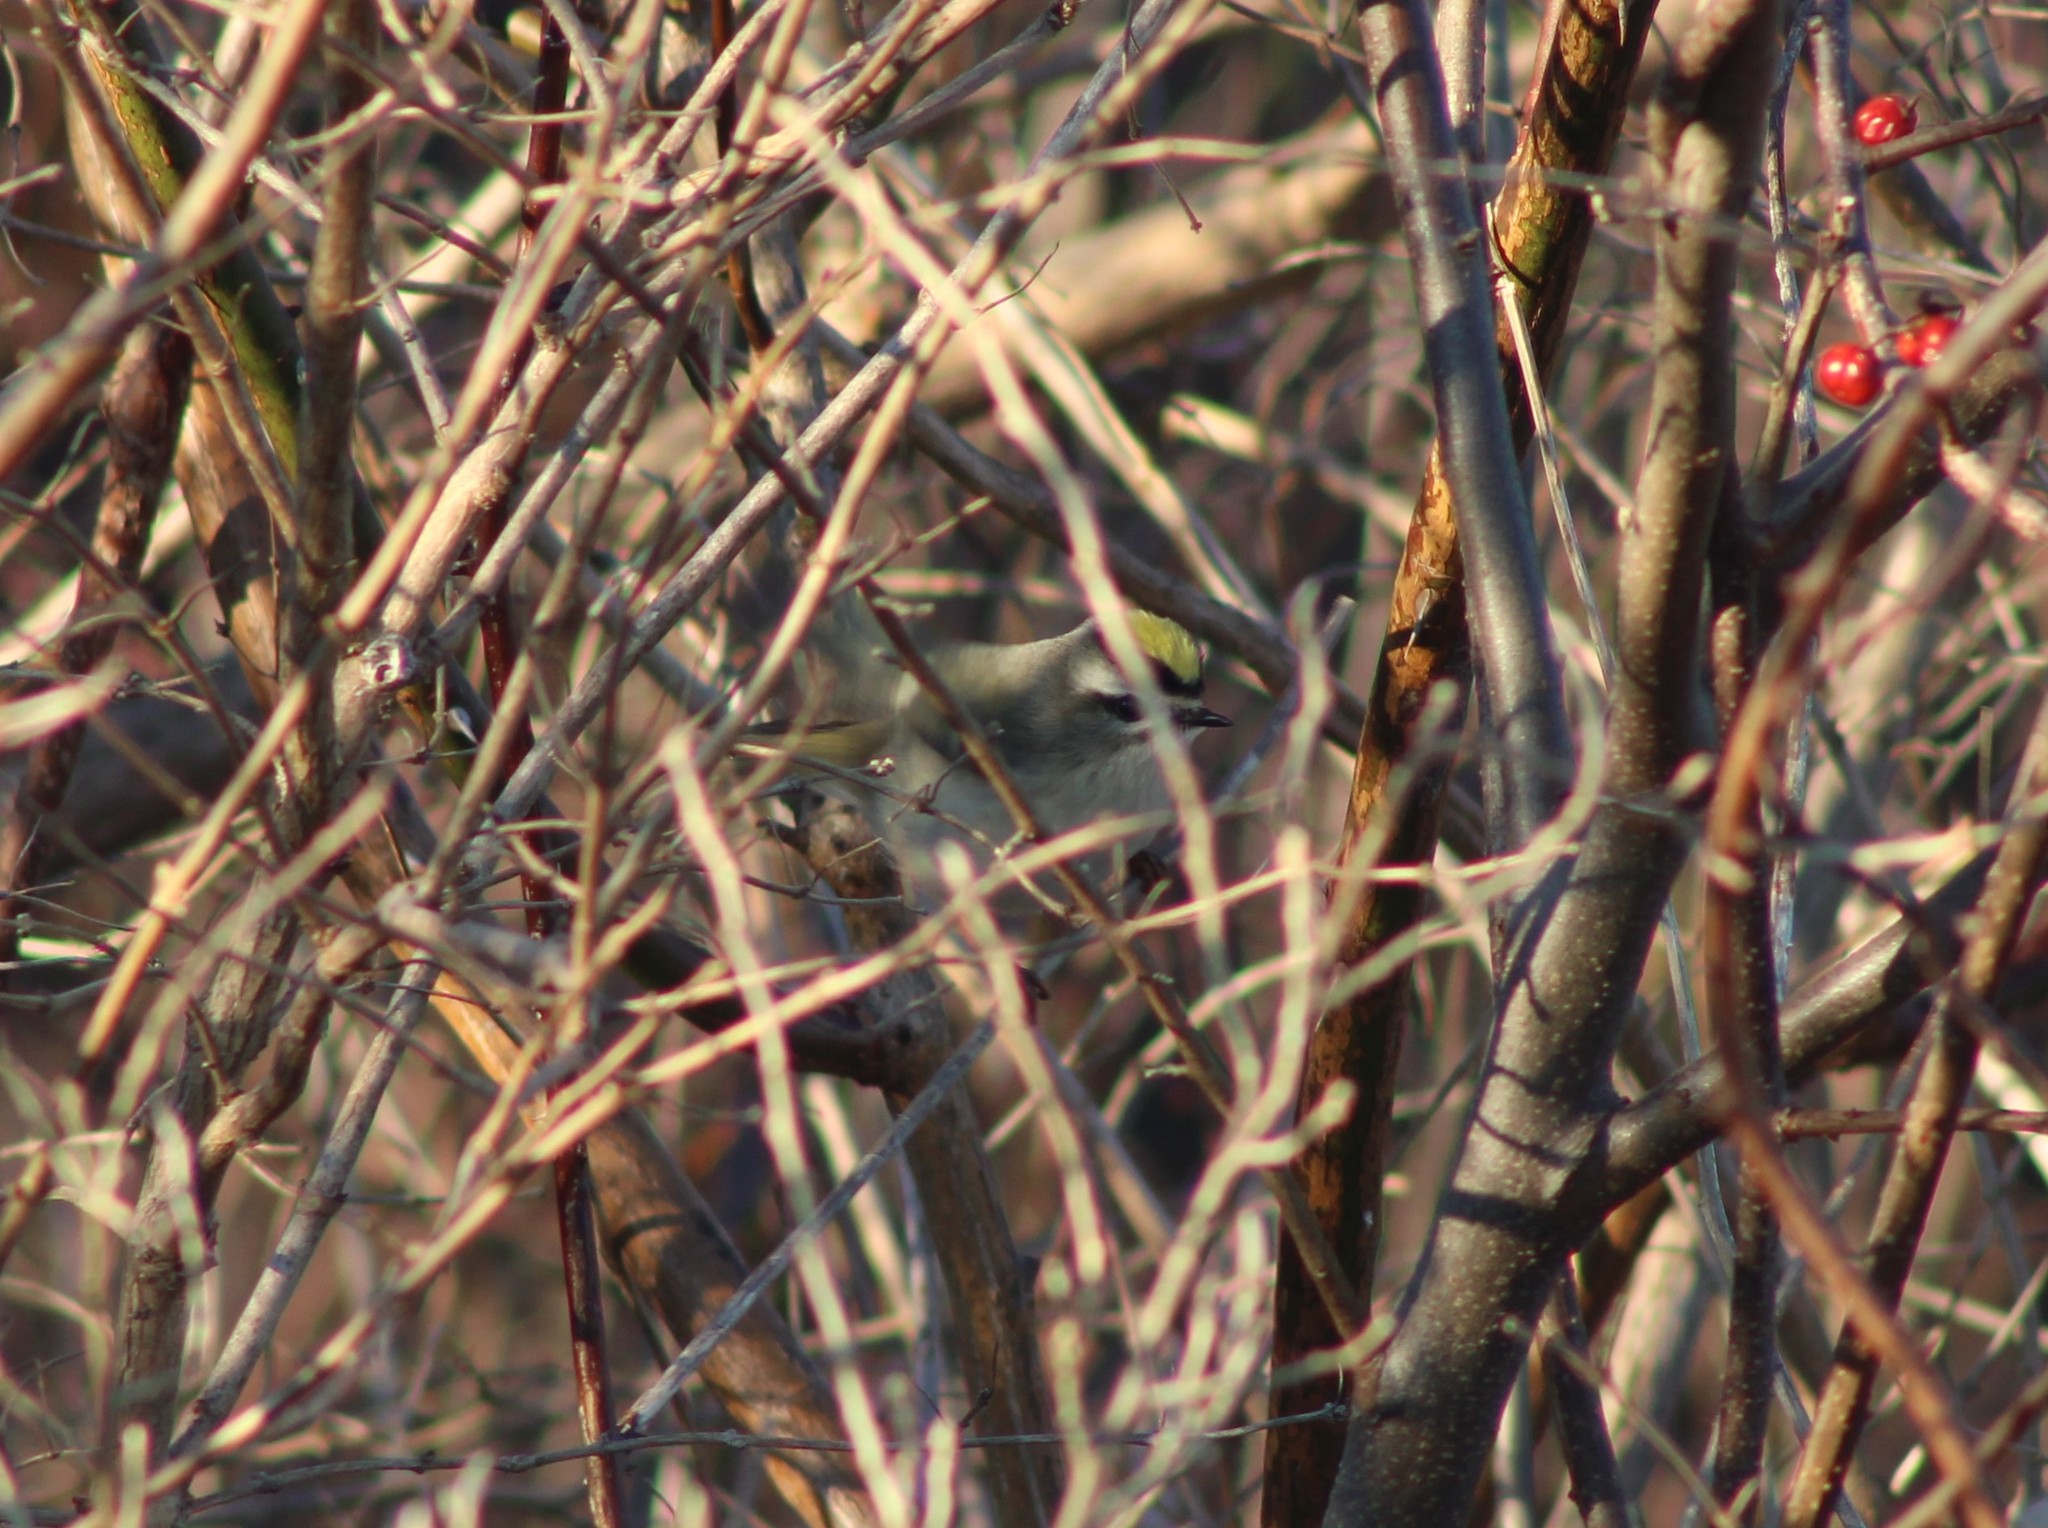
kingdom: Animalia
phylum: Chordata
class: Aves
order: Passeriformes
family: Regulidae
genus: Regulus
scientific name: Regulus satrapa
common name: Golden-crowned kinglet
